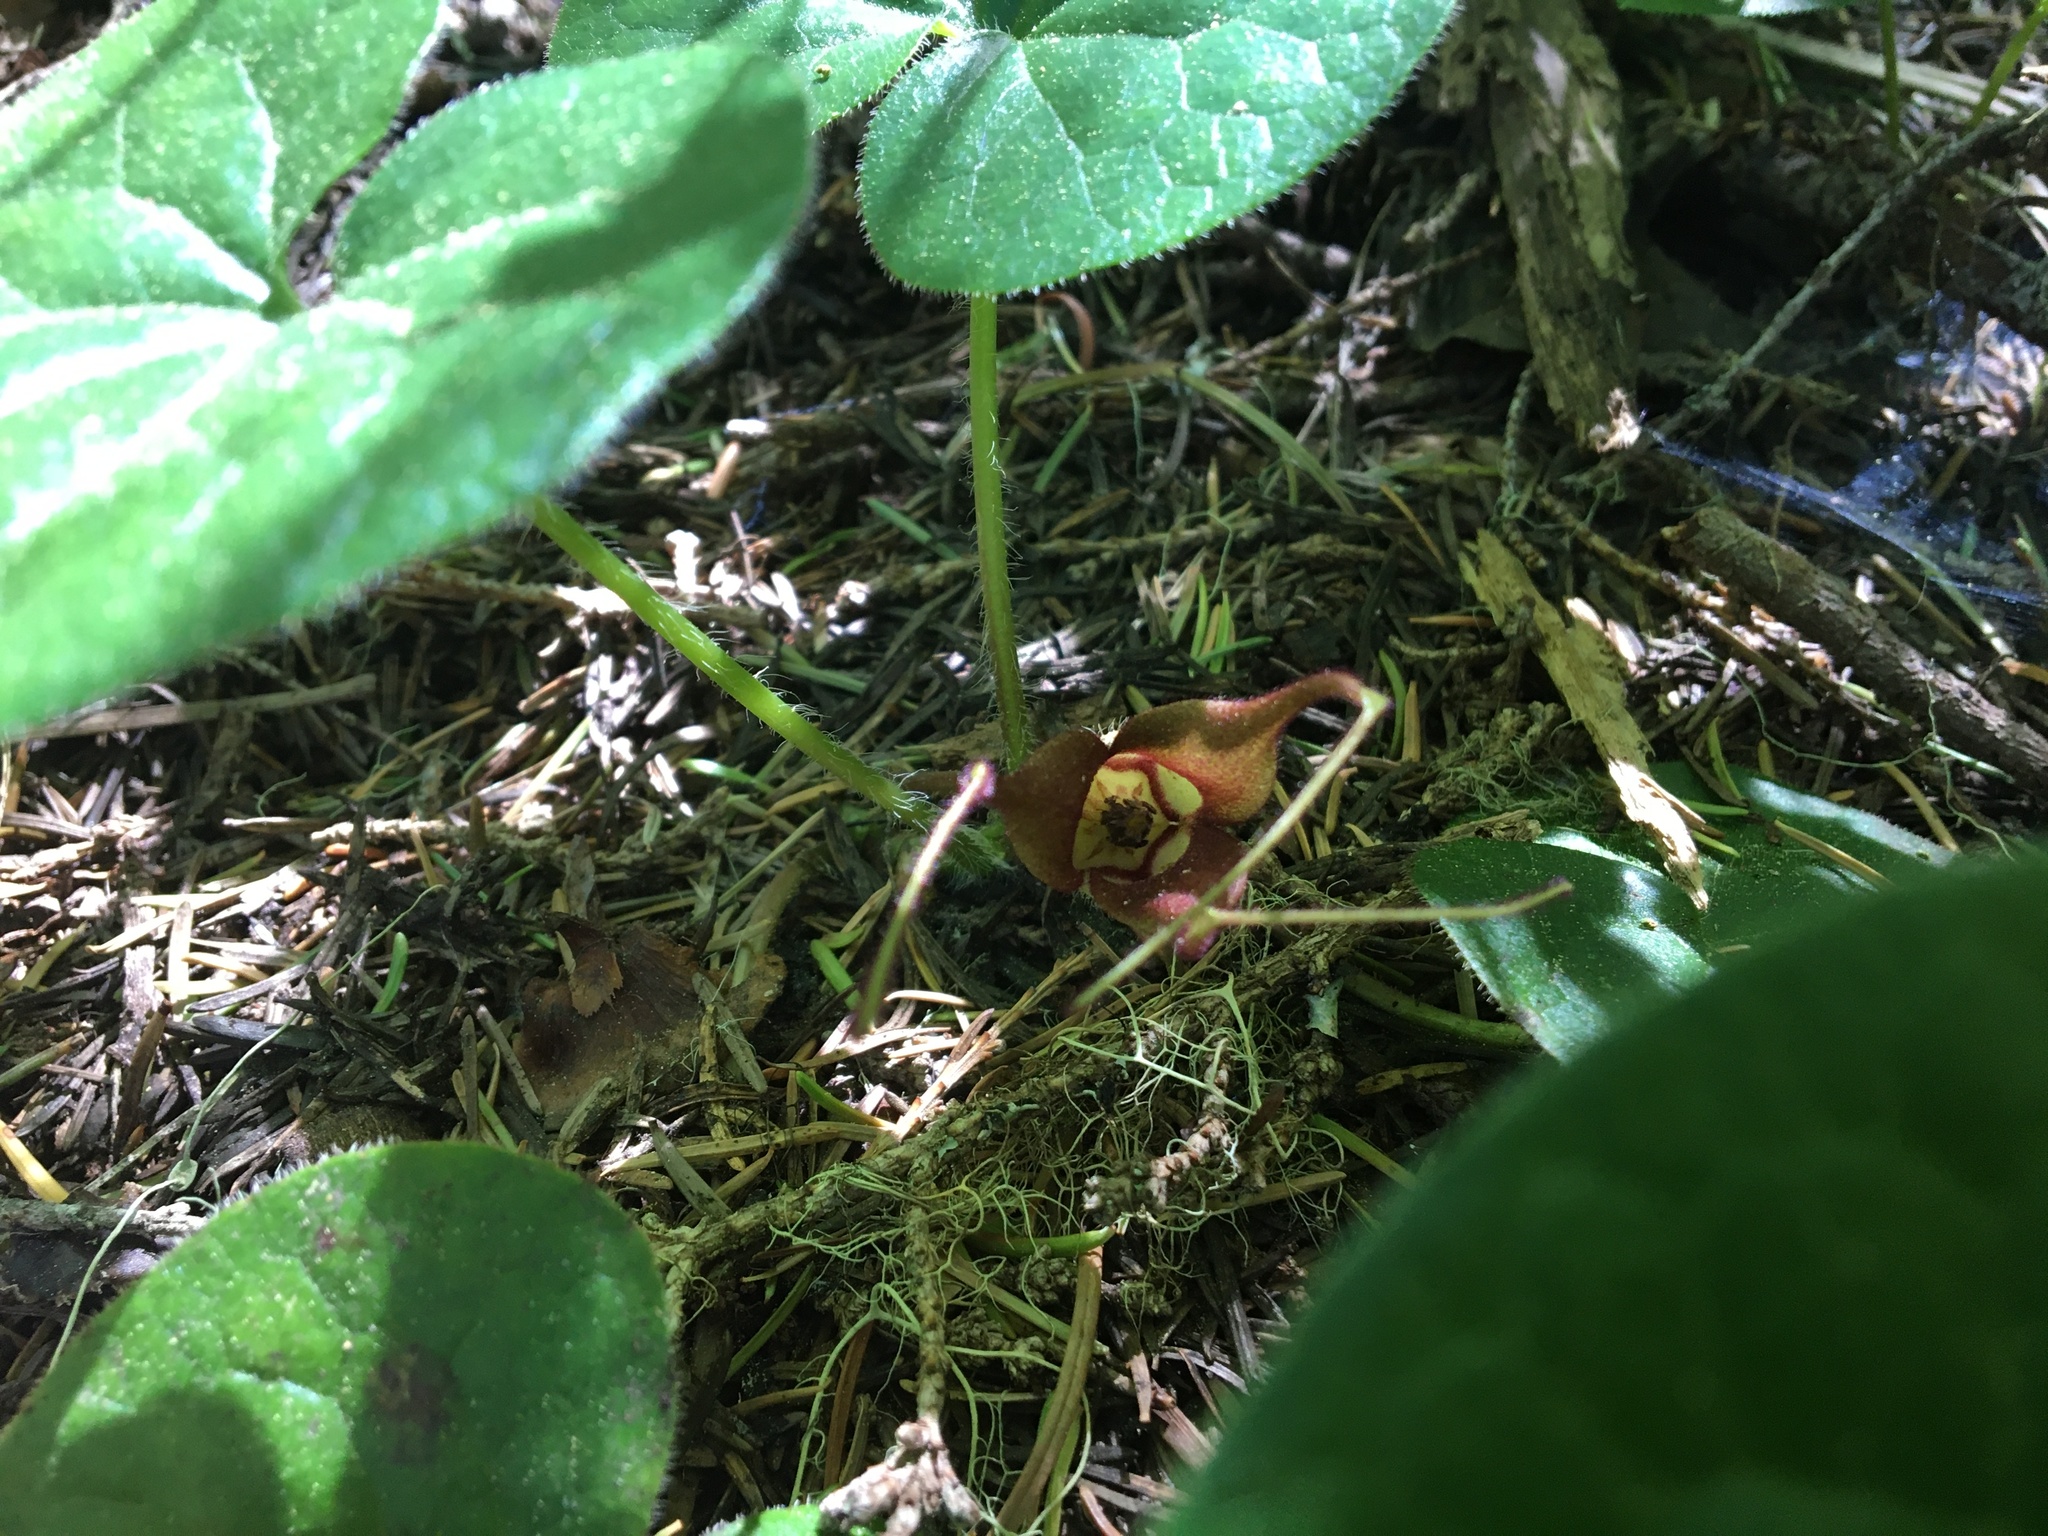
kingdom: Plantae
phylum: Tracheophyta
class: Magnoliopsida
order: Piperales
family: Aristolochiaceae
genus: Asarum
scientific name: Asarum caudatum
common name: Wild ginger
